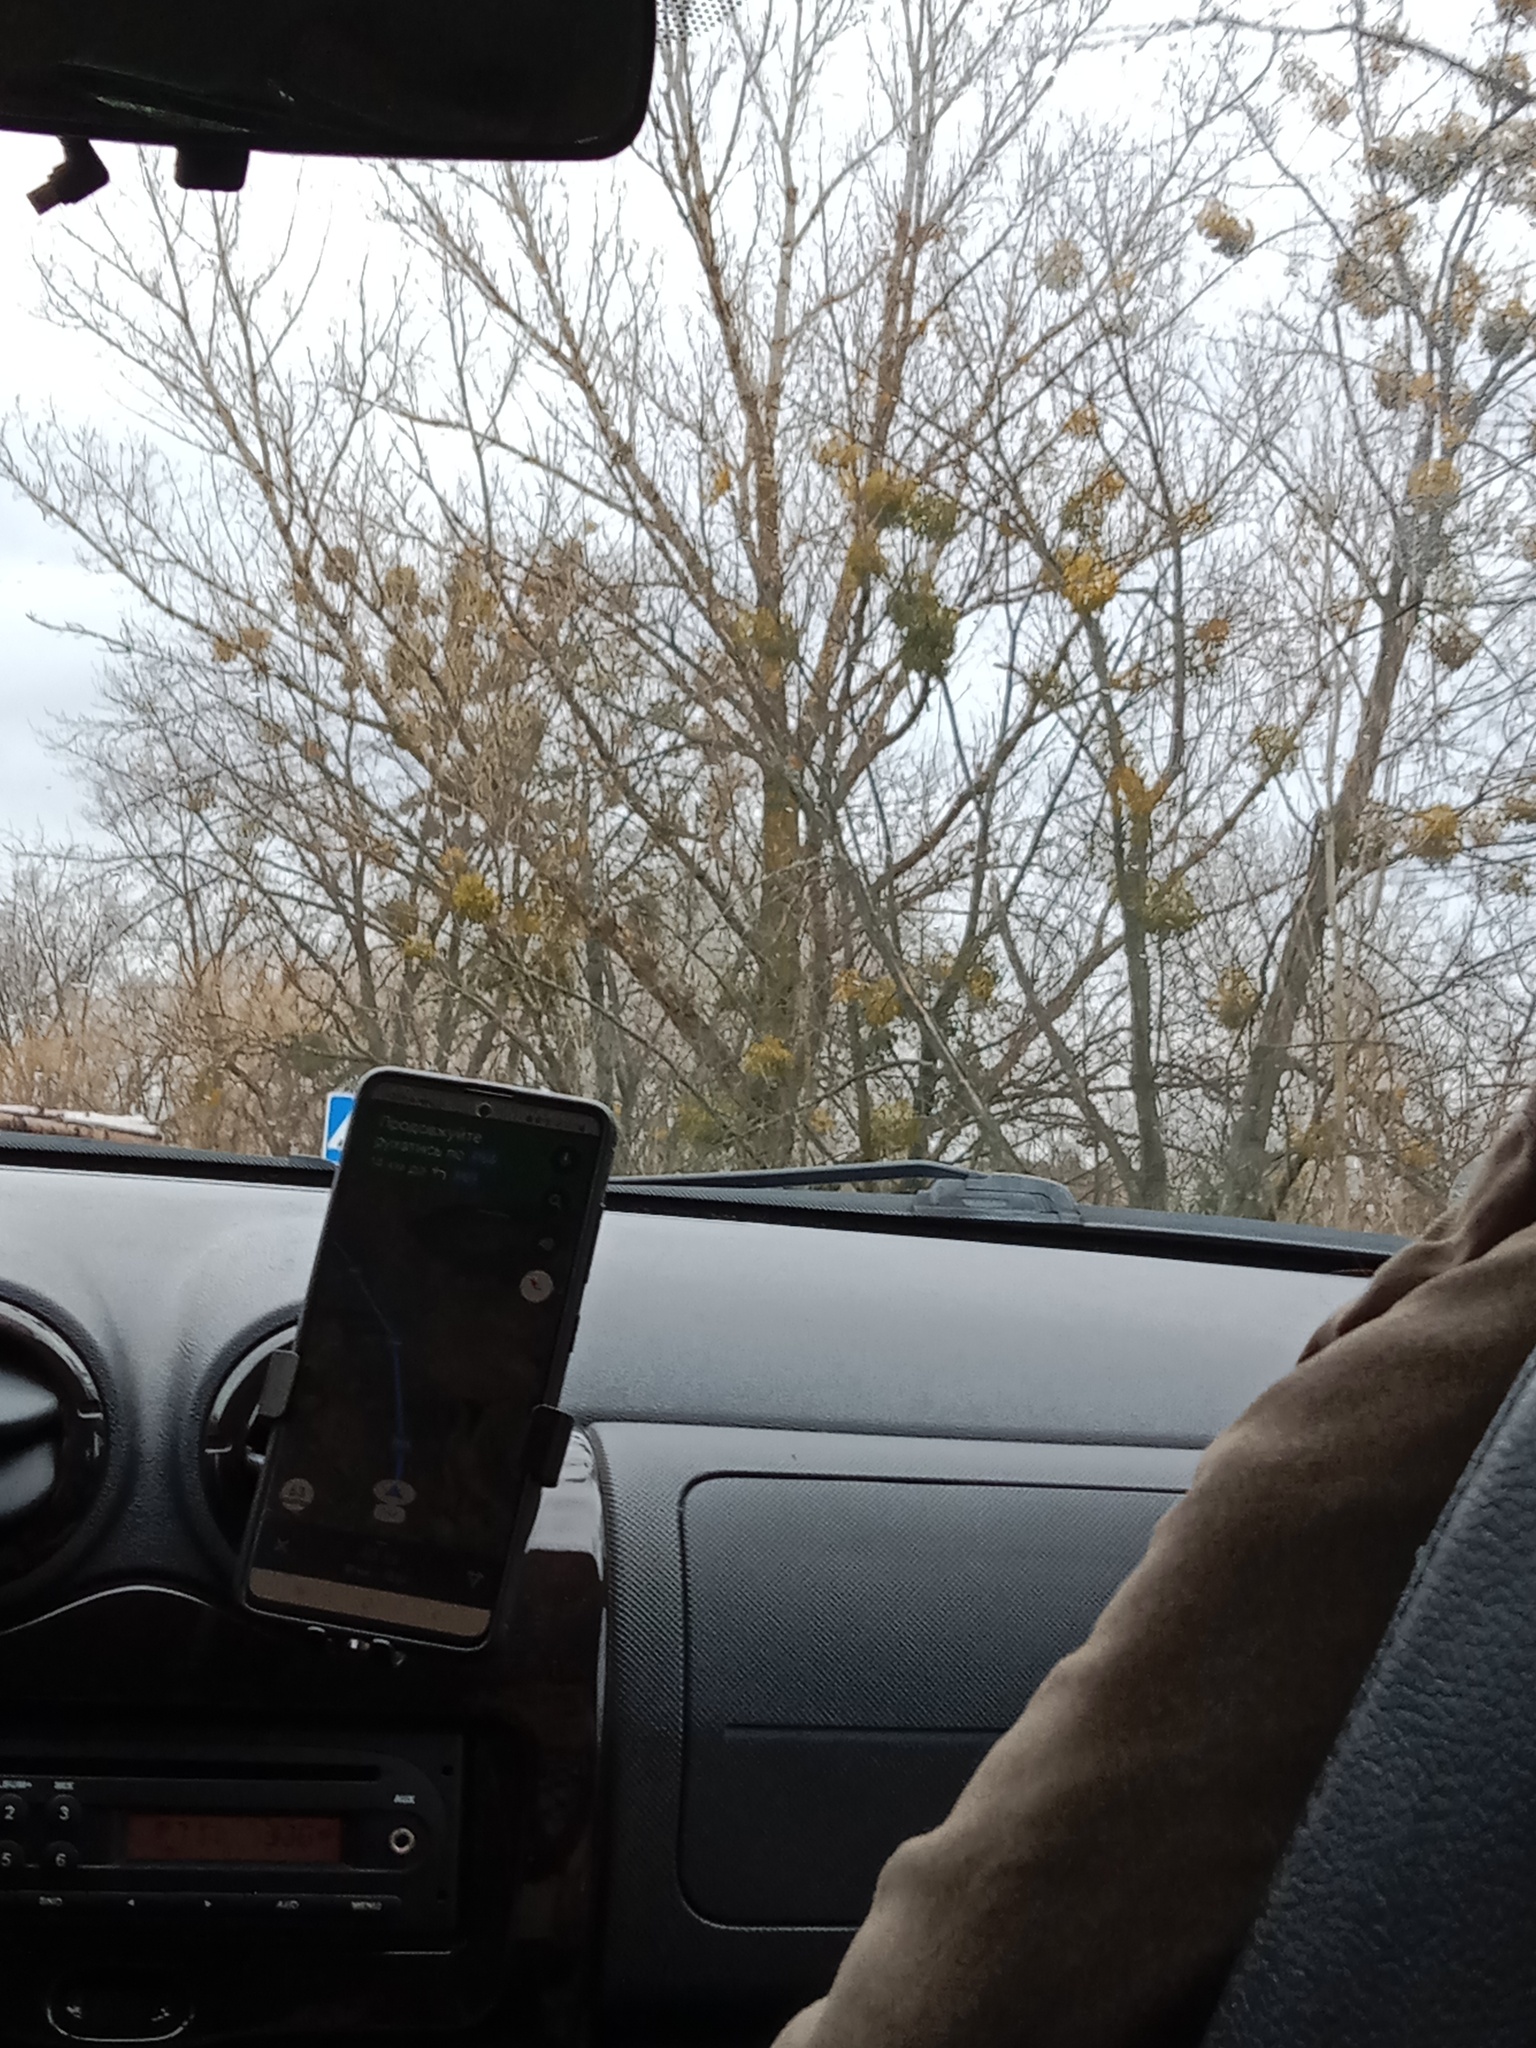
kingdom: Plantae
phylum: Tracheophyta
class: Magnoliopsida
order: Santalales
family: Viscaceae
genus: Viscum
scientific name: Viscum album
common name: Mistletoe
